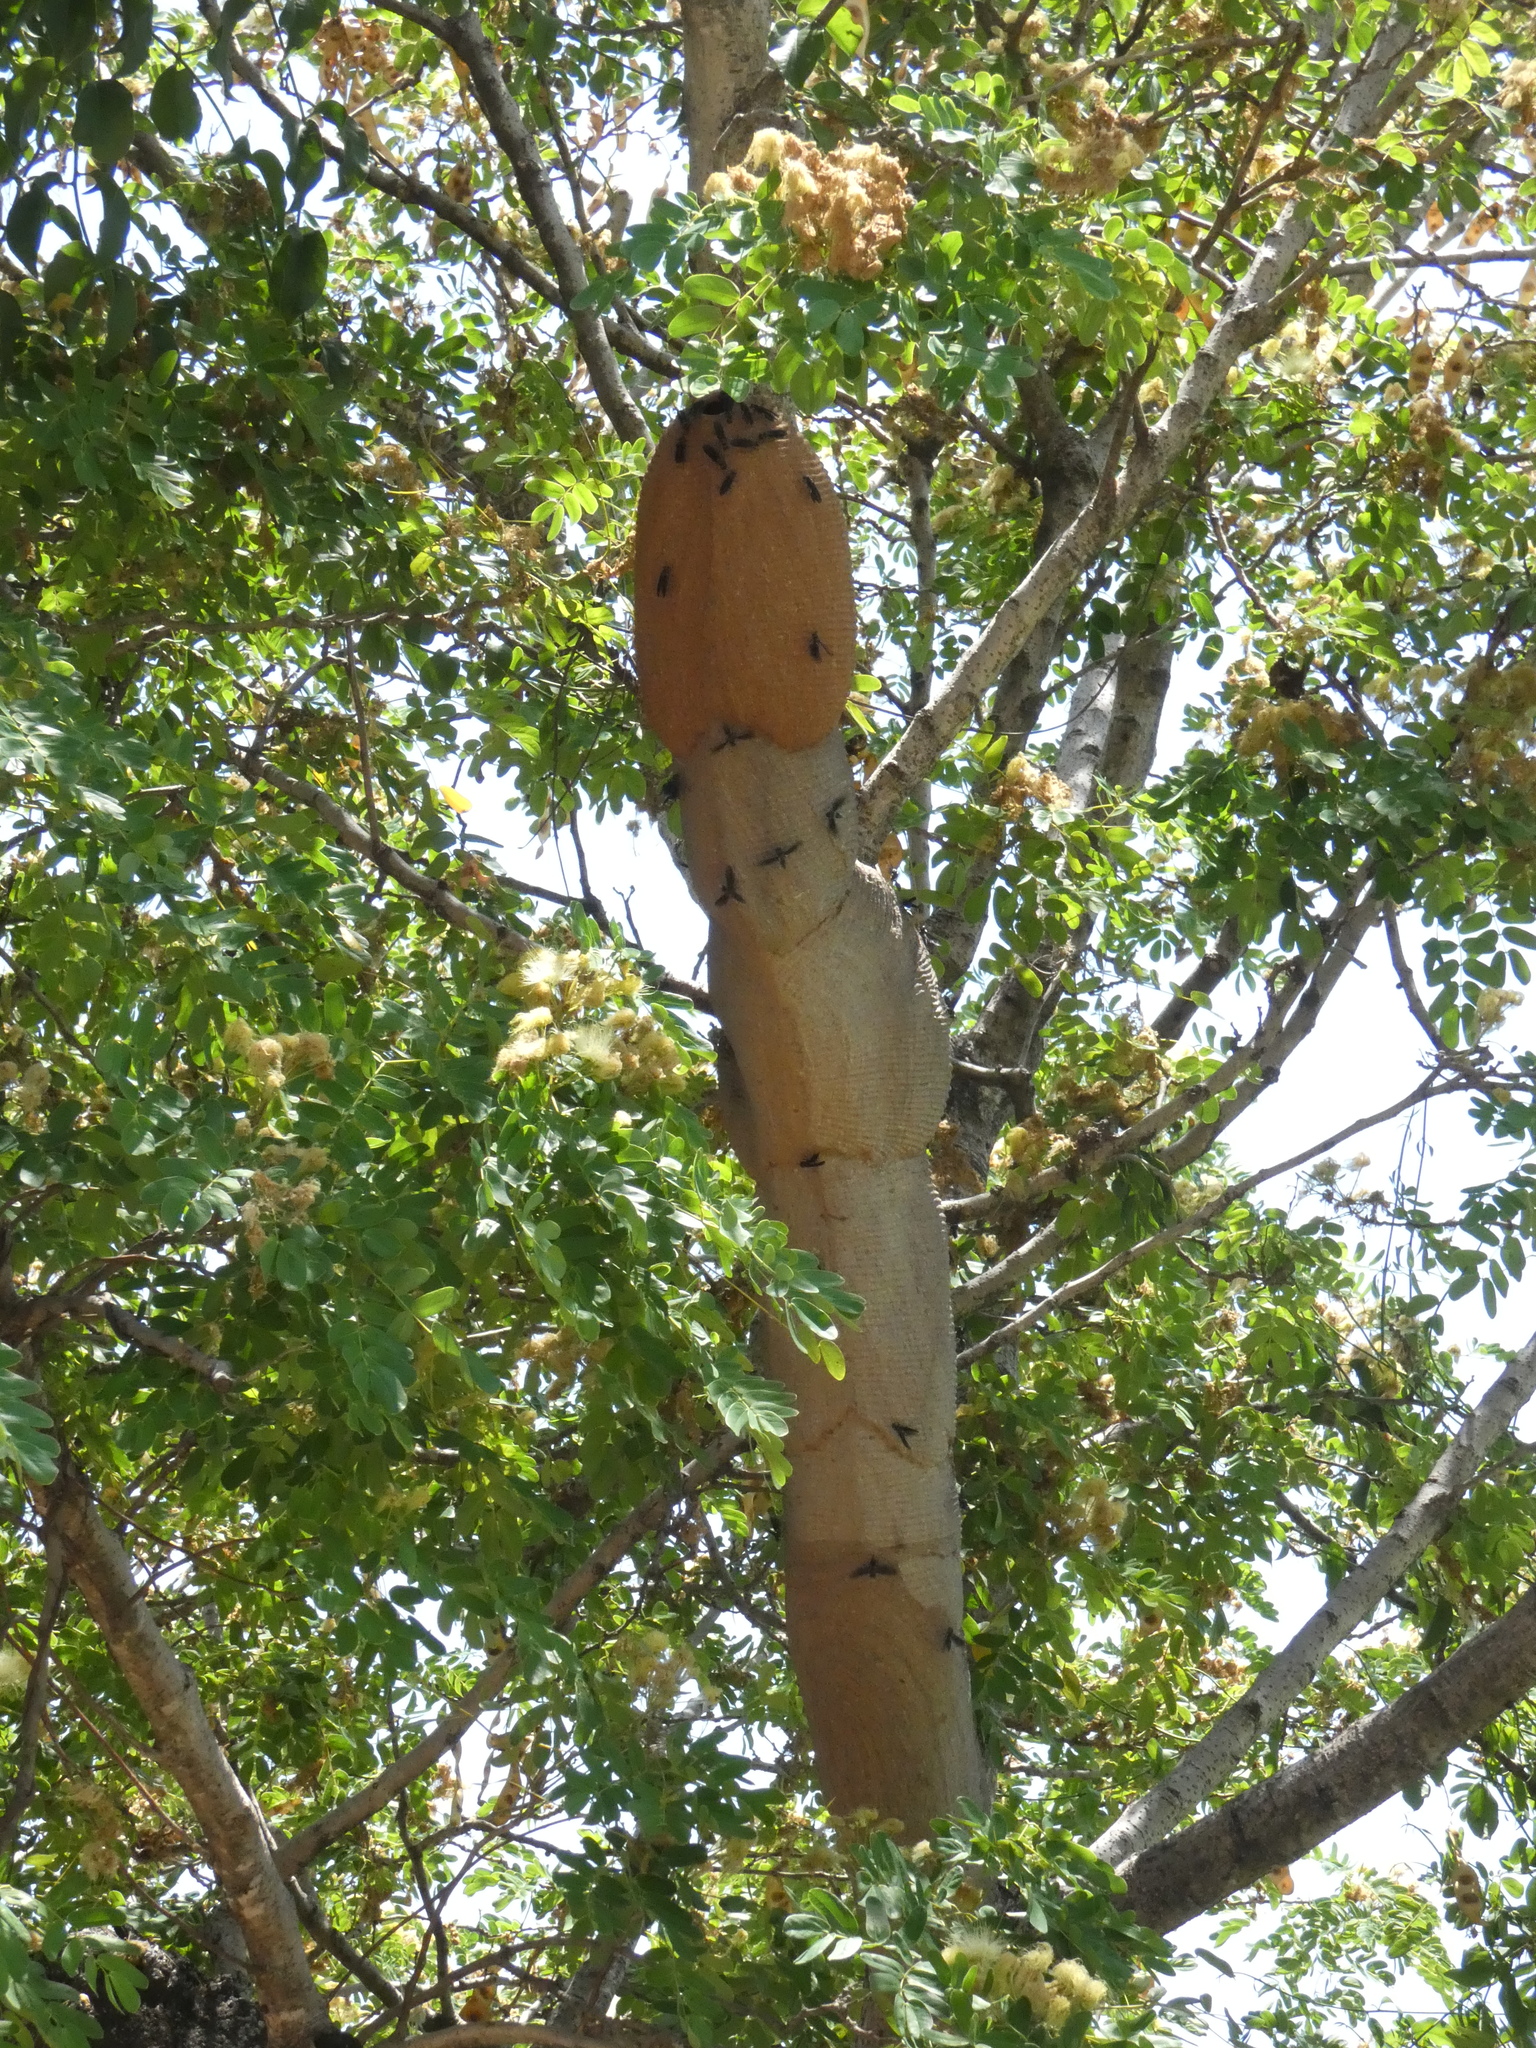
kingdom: Animalia
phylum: Arthropoda
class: Insecta
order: Hymenoptera
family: Vespidae
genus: Synoeca
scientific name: Synoeca surinama
